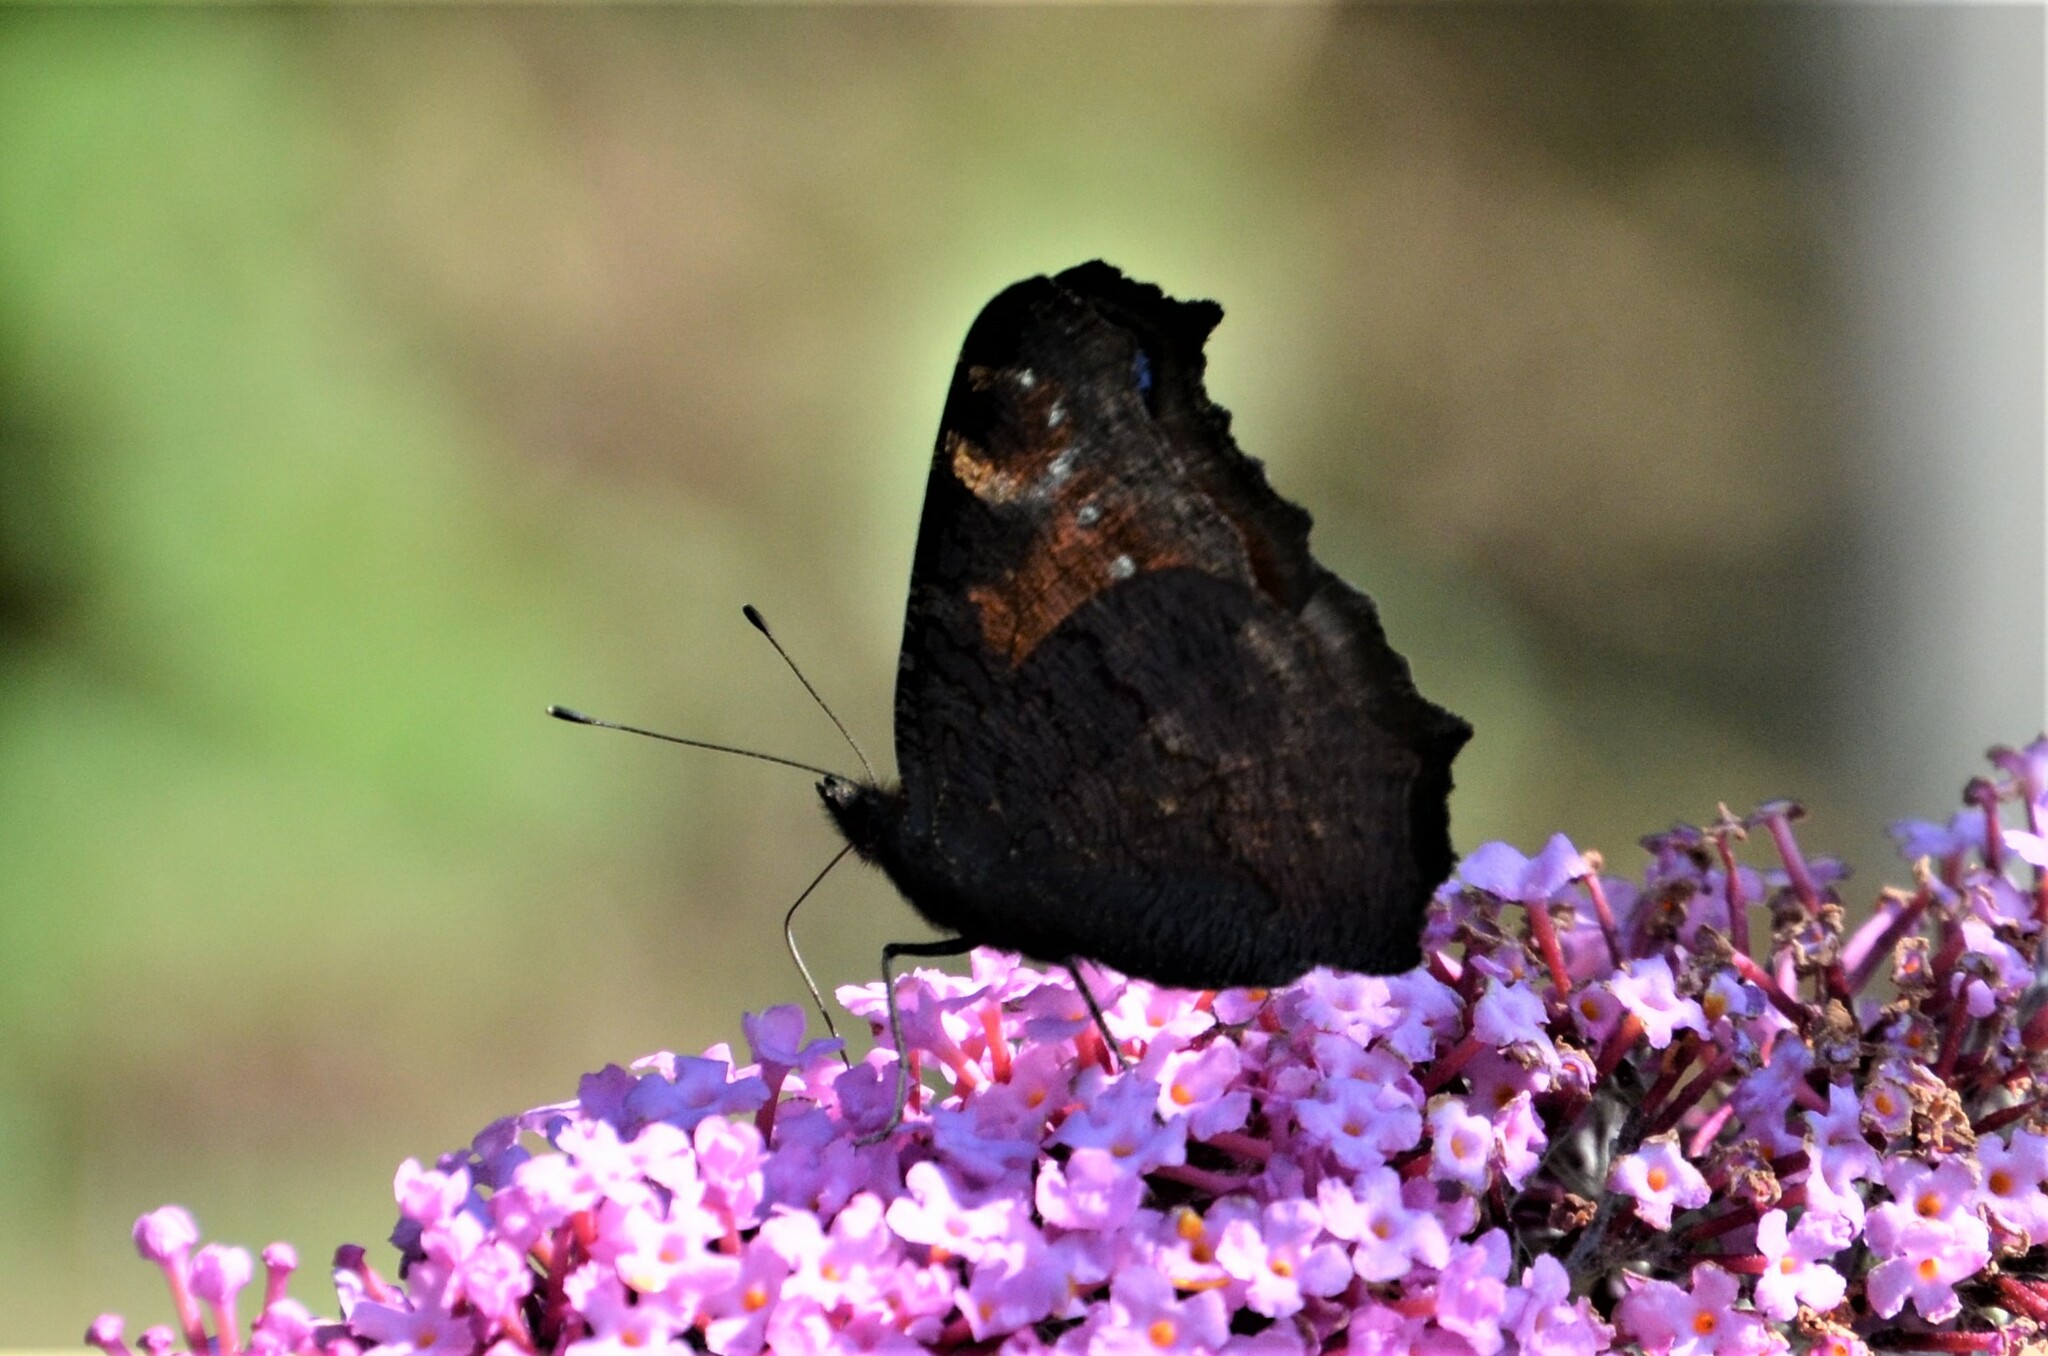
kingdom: Animalia
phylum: Arthropoda
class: Insecta
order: Lepidoptera
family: Nymphalidae
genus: Aglais
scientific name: Aglais io
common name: Peacock
